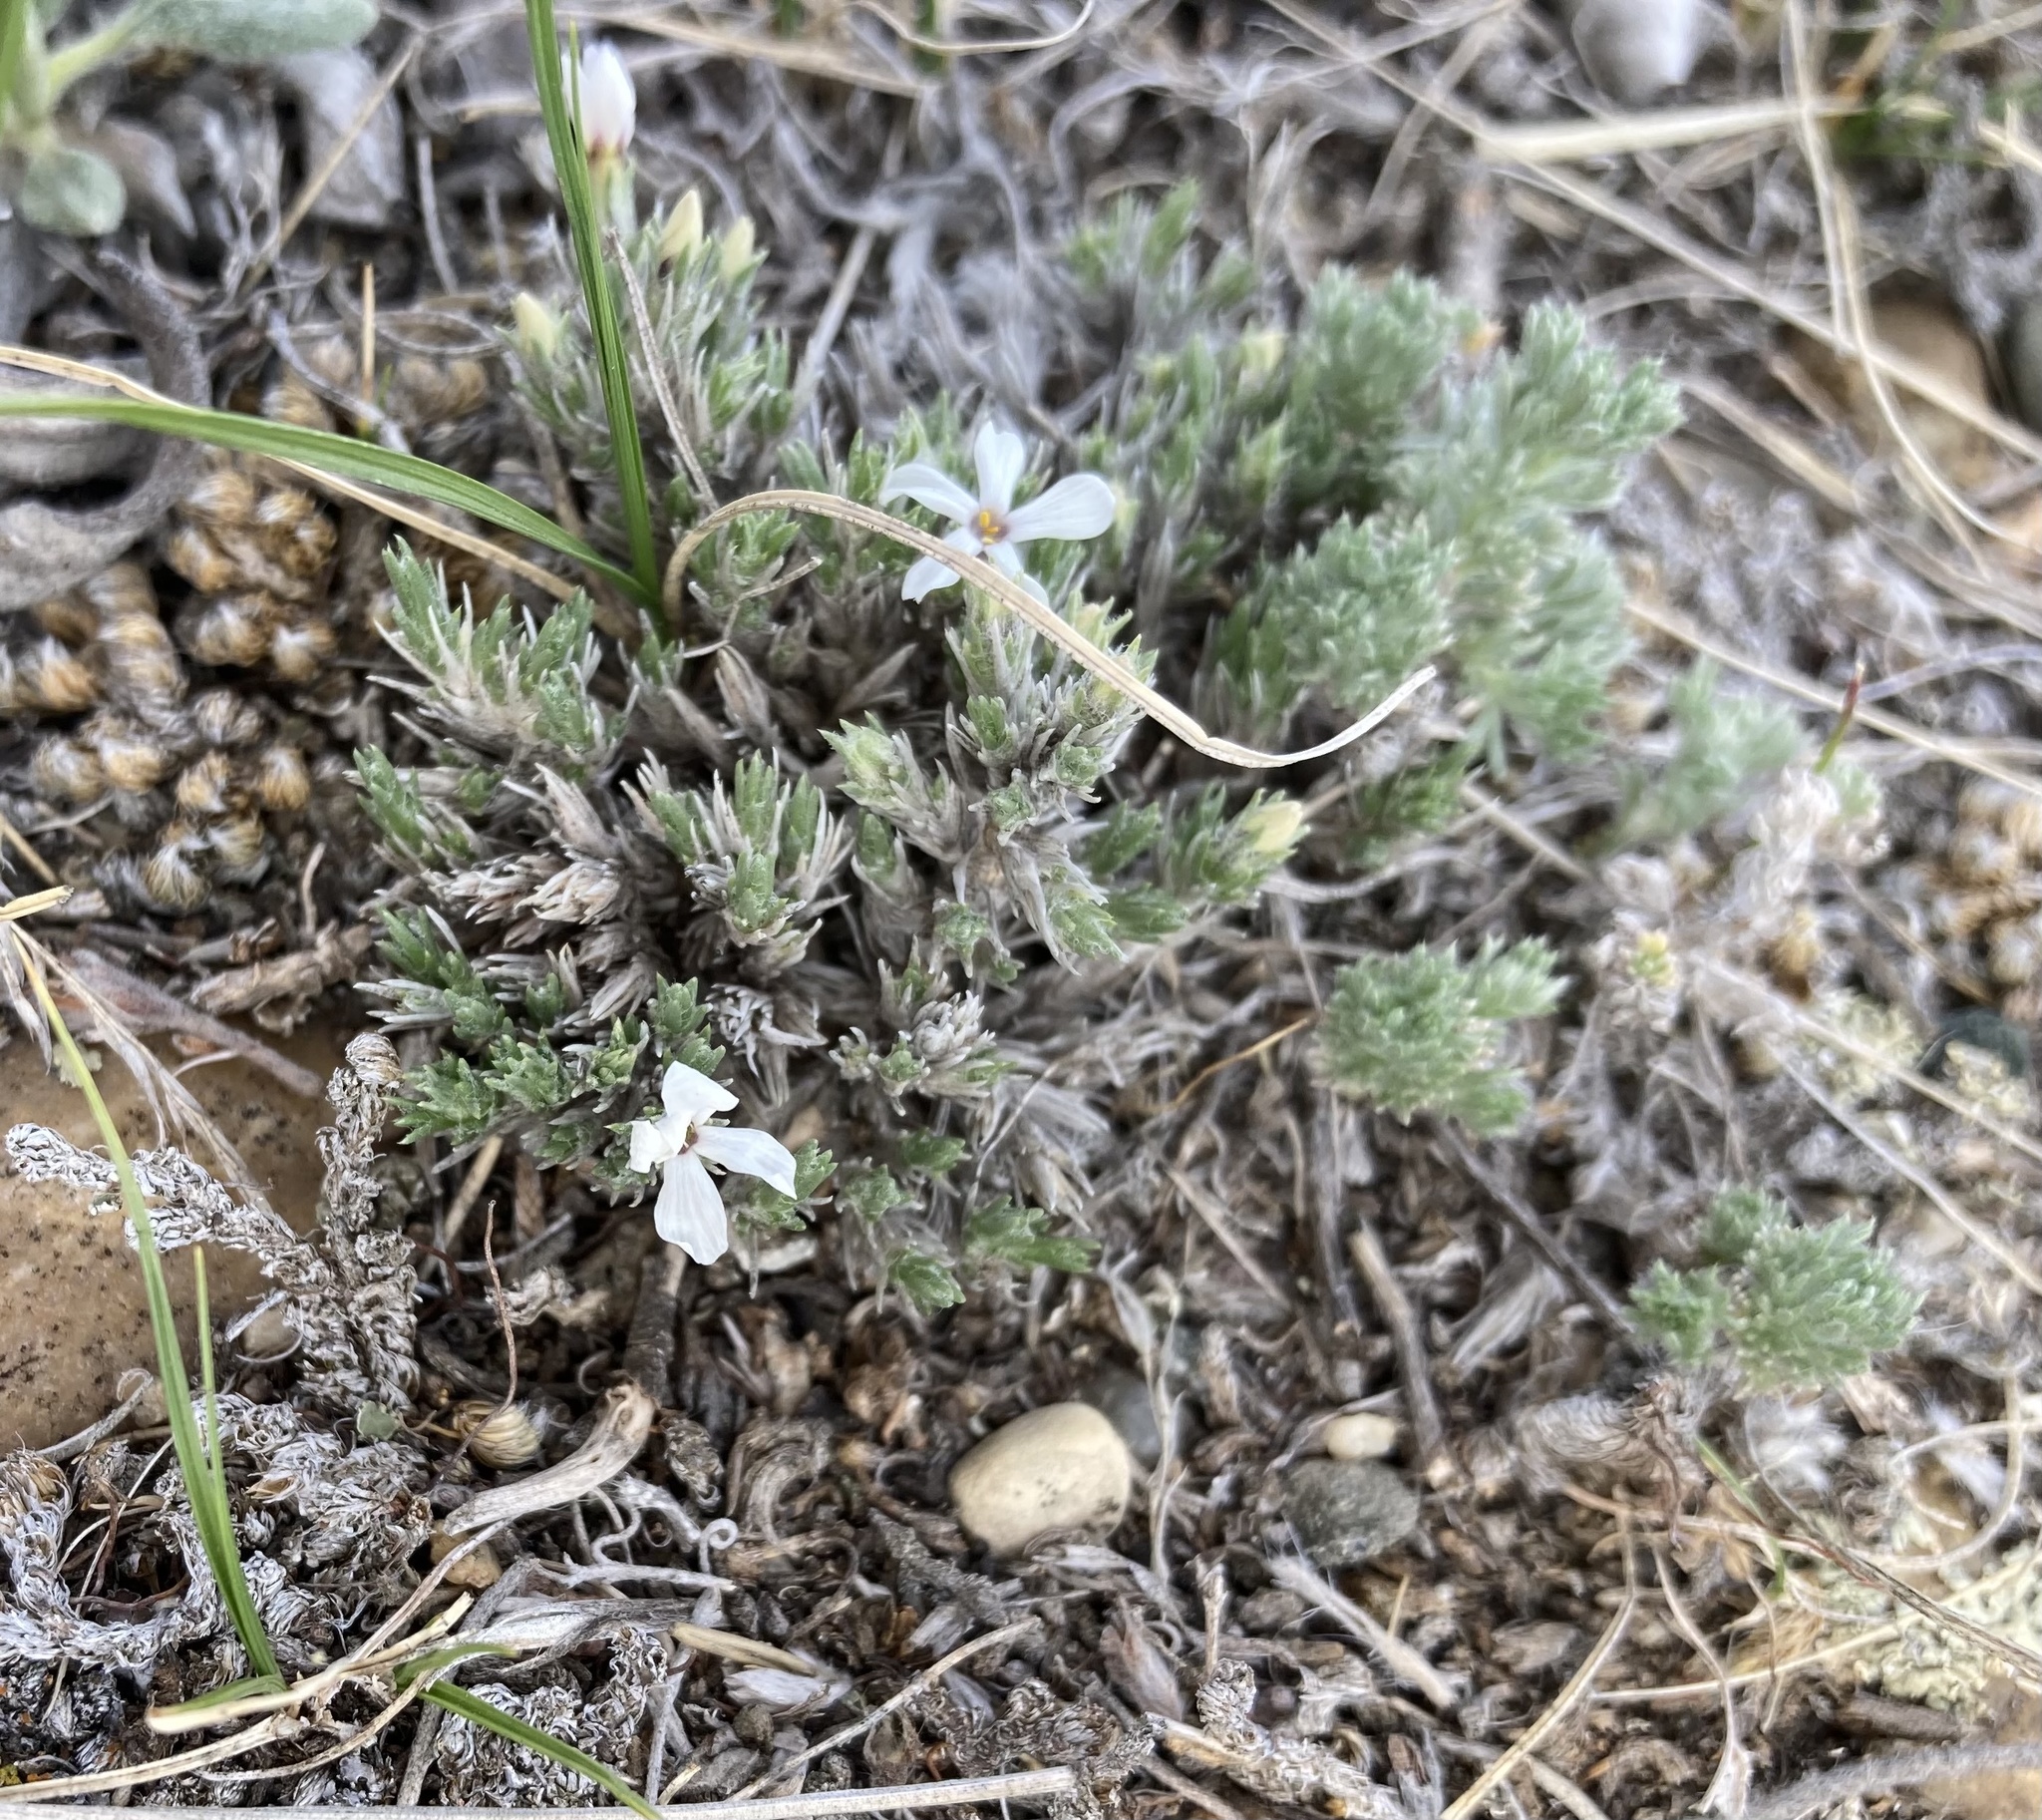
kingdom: Plantae
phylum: Tracheophyta
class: Magnoliopsida
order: Ericales
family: Polemoniaceae
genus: Phlox
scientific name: Phlox hoodii
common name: Moss phlox
